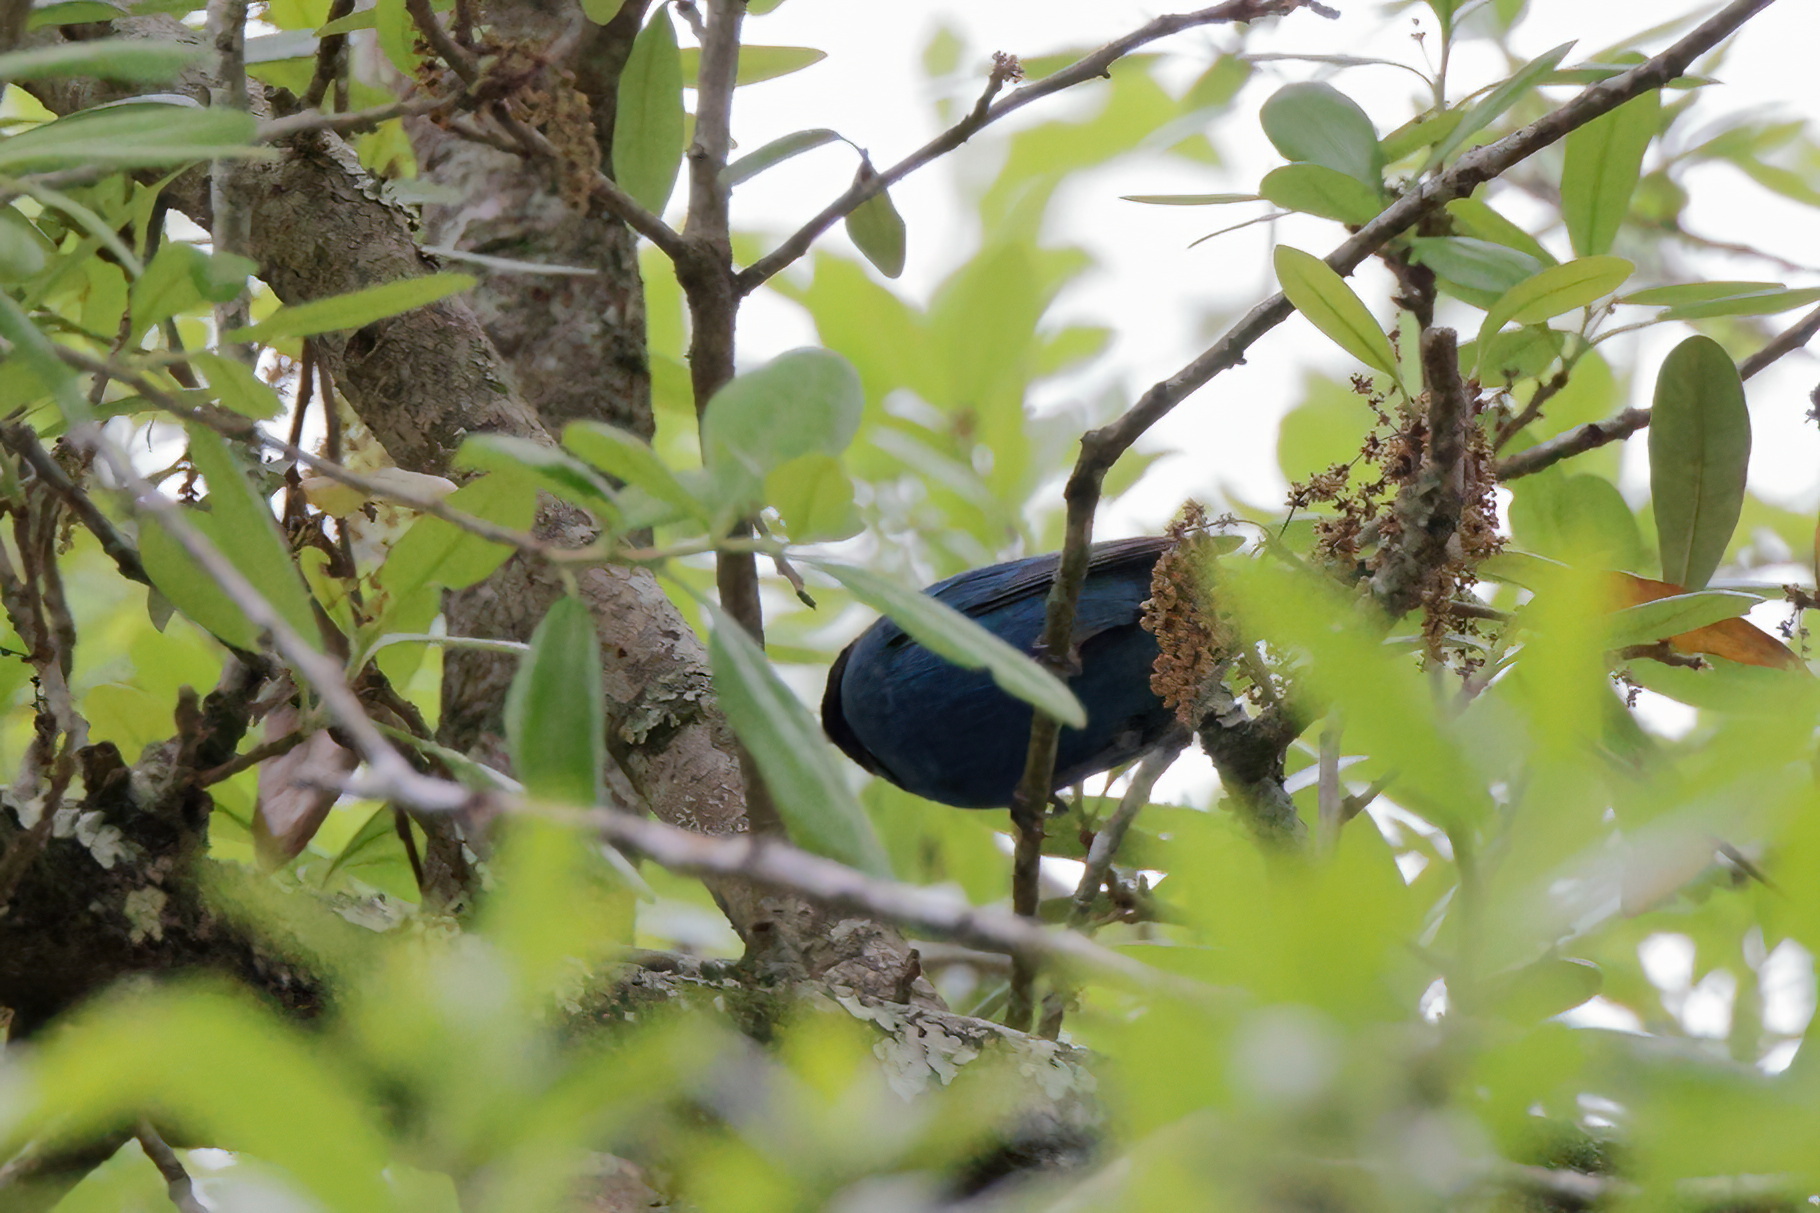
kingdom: Animalia
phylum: Chordata
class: Aves
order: Passeriformes
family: Cardinalidae
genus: Passerina
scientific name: Passerina cyanea
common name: Indigo bunting
